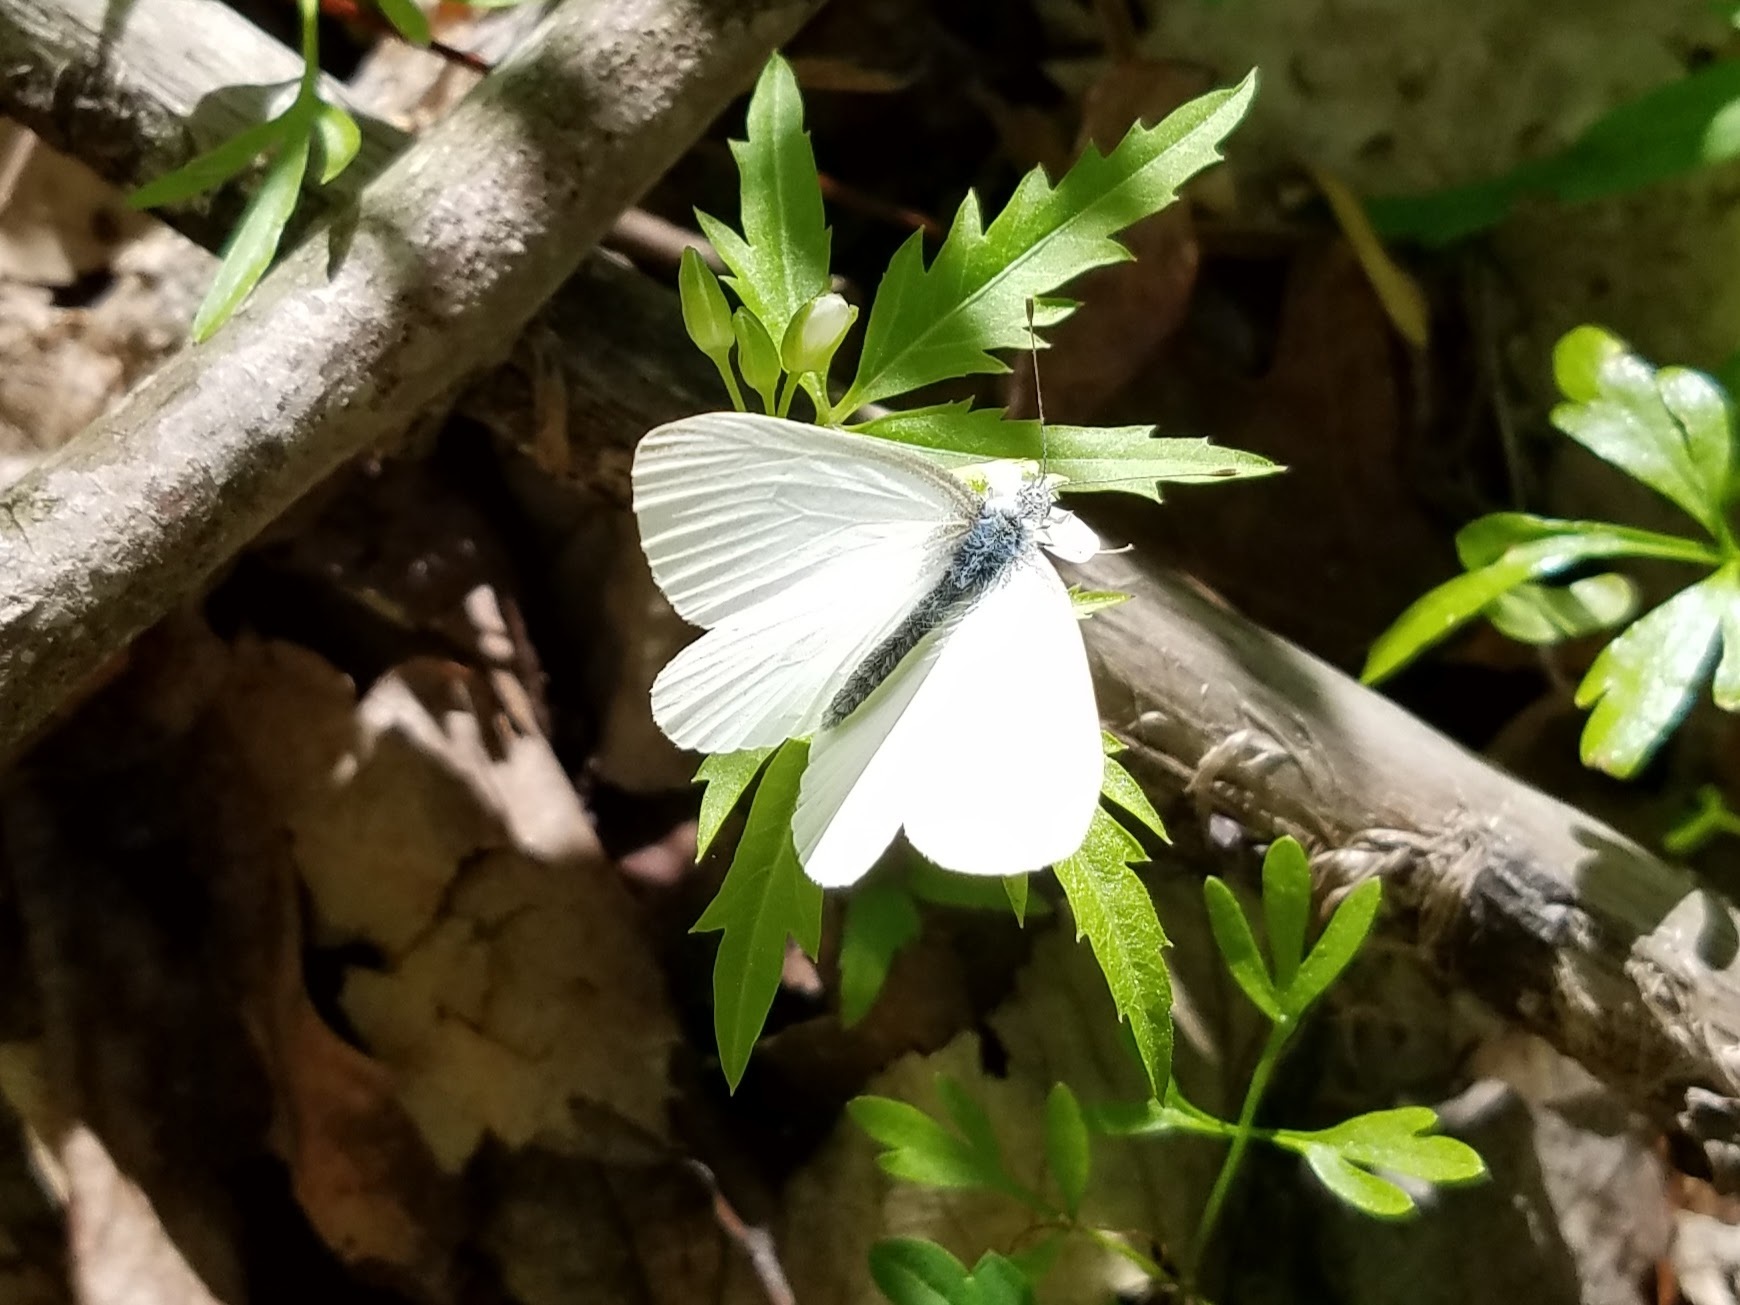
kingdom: Animalia
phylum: Arthropoda
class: Insecta
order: Lepidoptera
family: Pieridae
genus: Pieris
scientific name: Pieris virginiensis
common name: West virginia white
